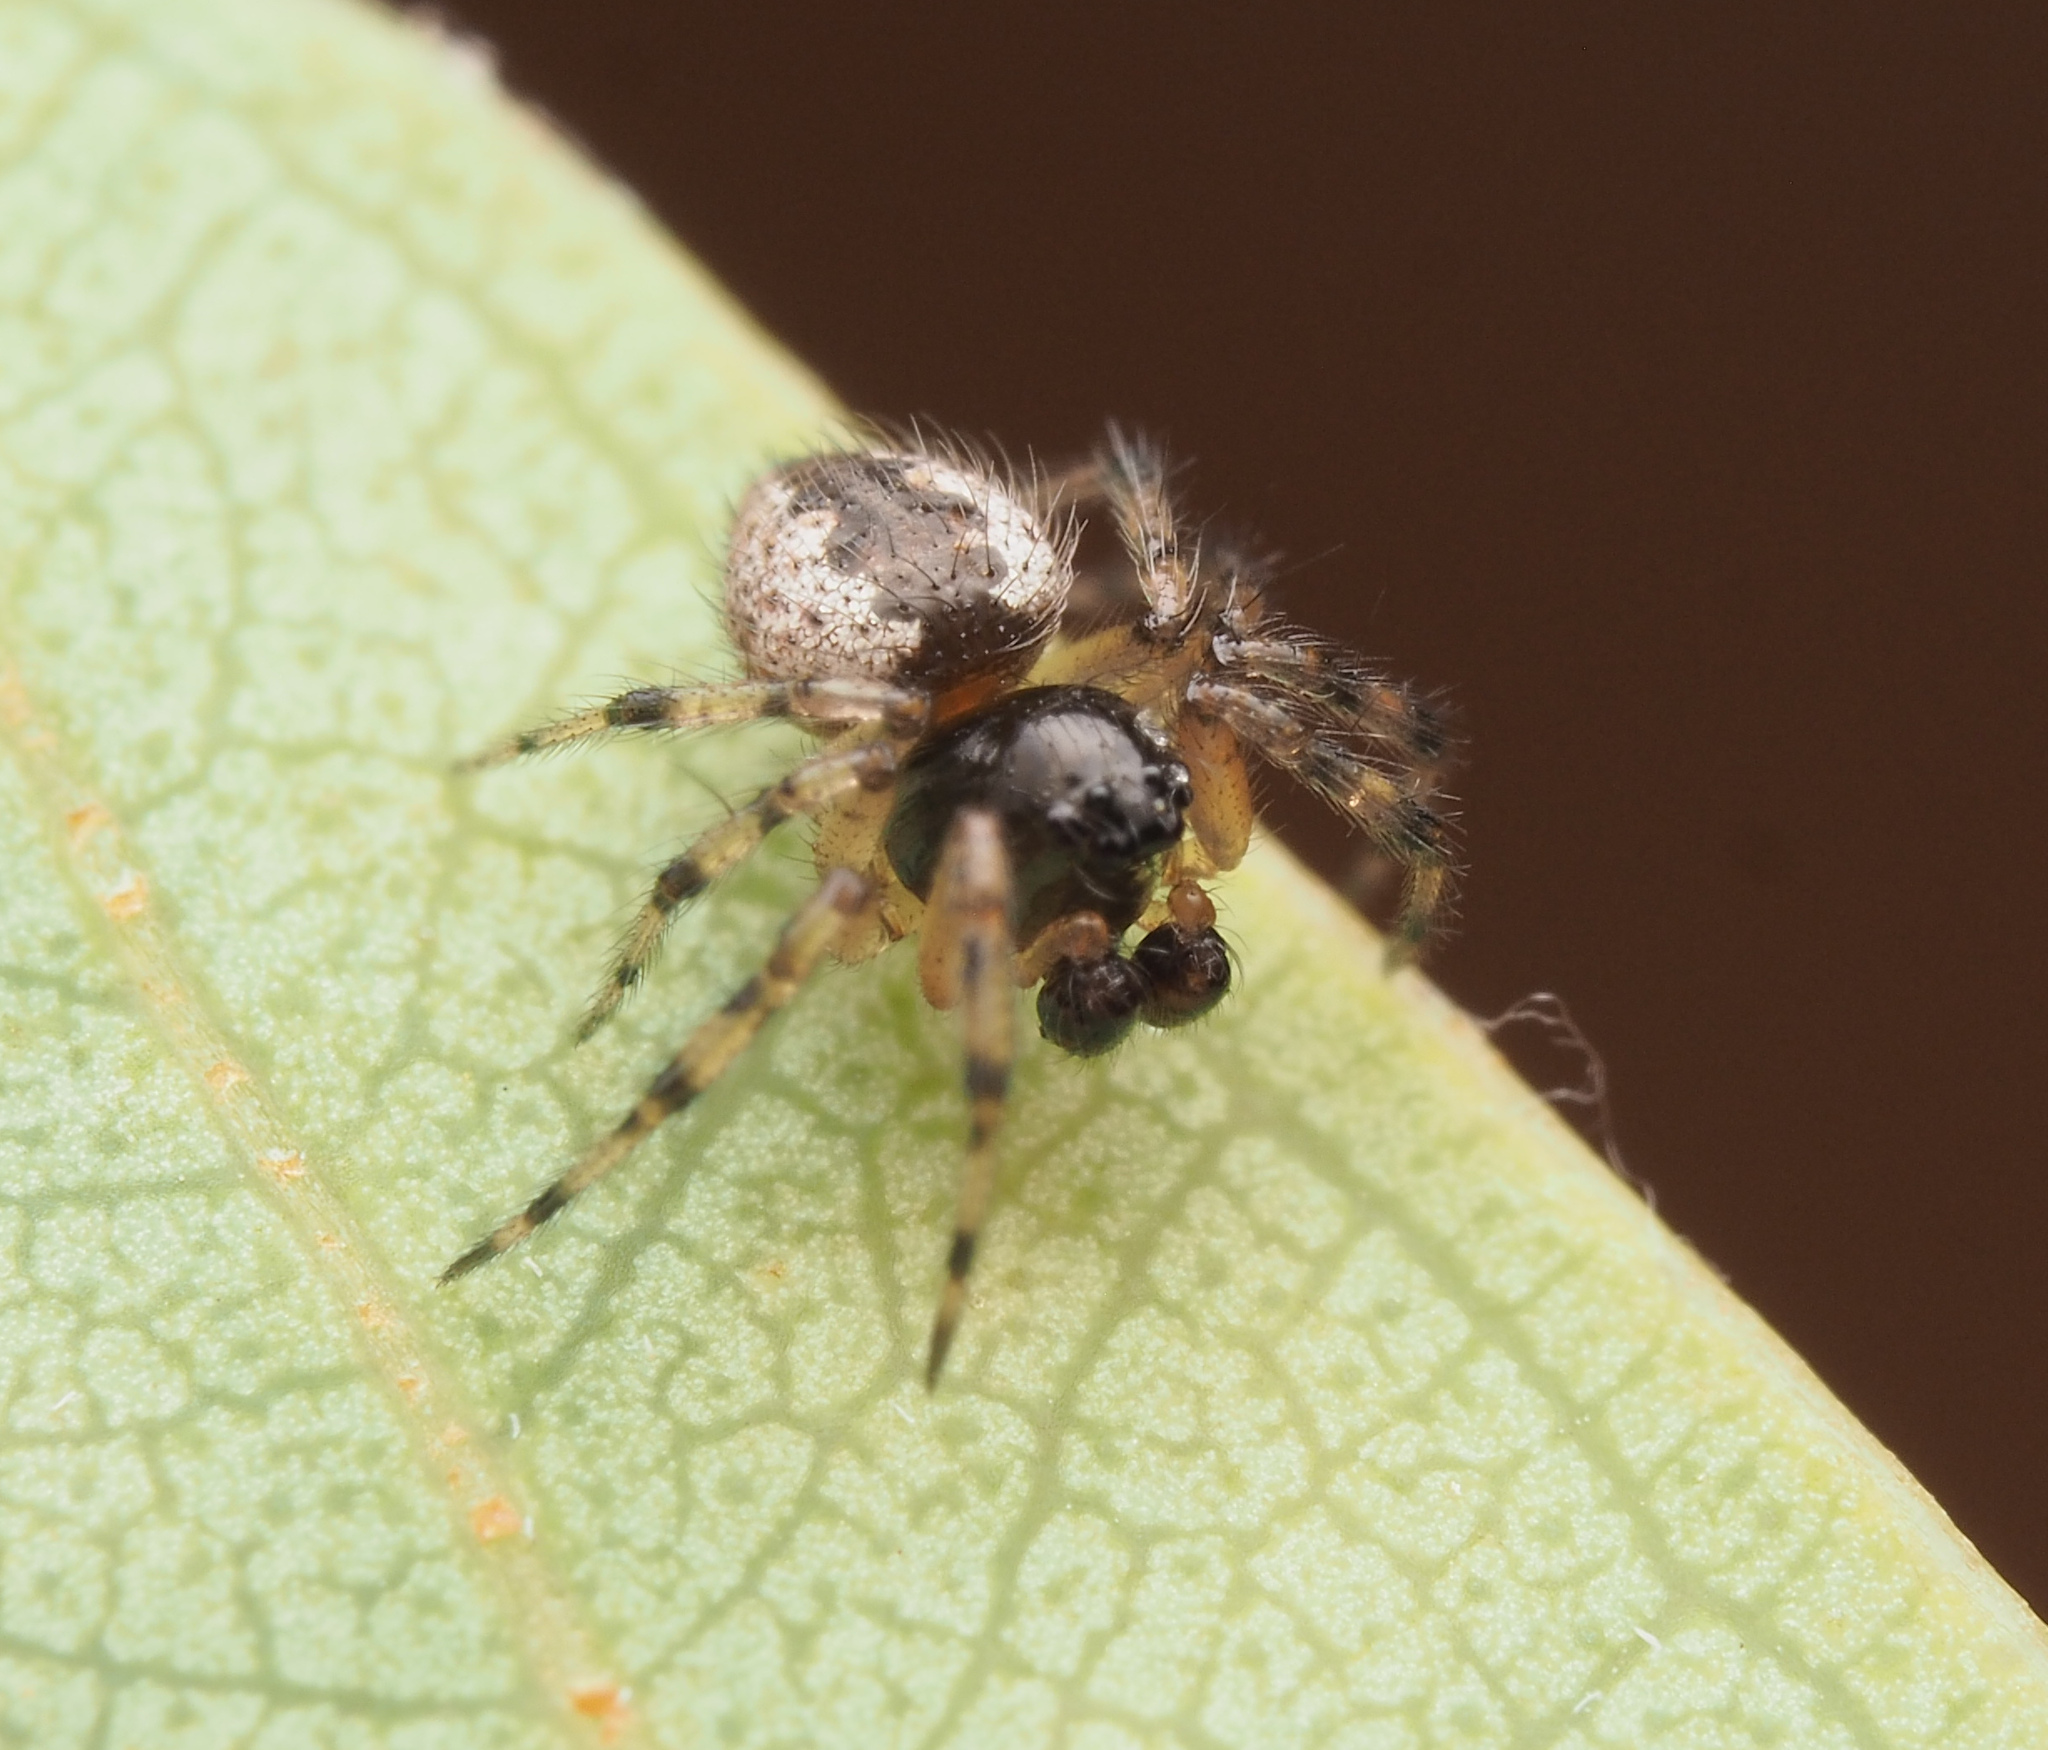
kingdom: Animalia
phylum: Arthropoda
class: Arachnida
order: Araneae
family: Theridiidae
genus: Euryopis
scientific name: Euryopis
